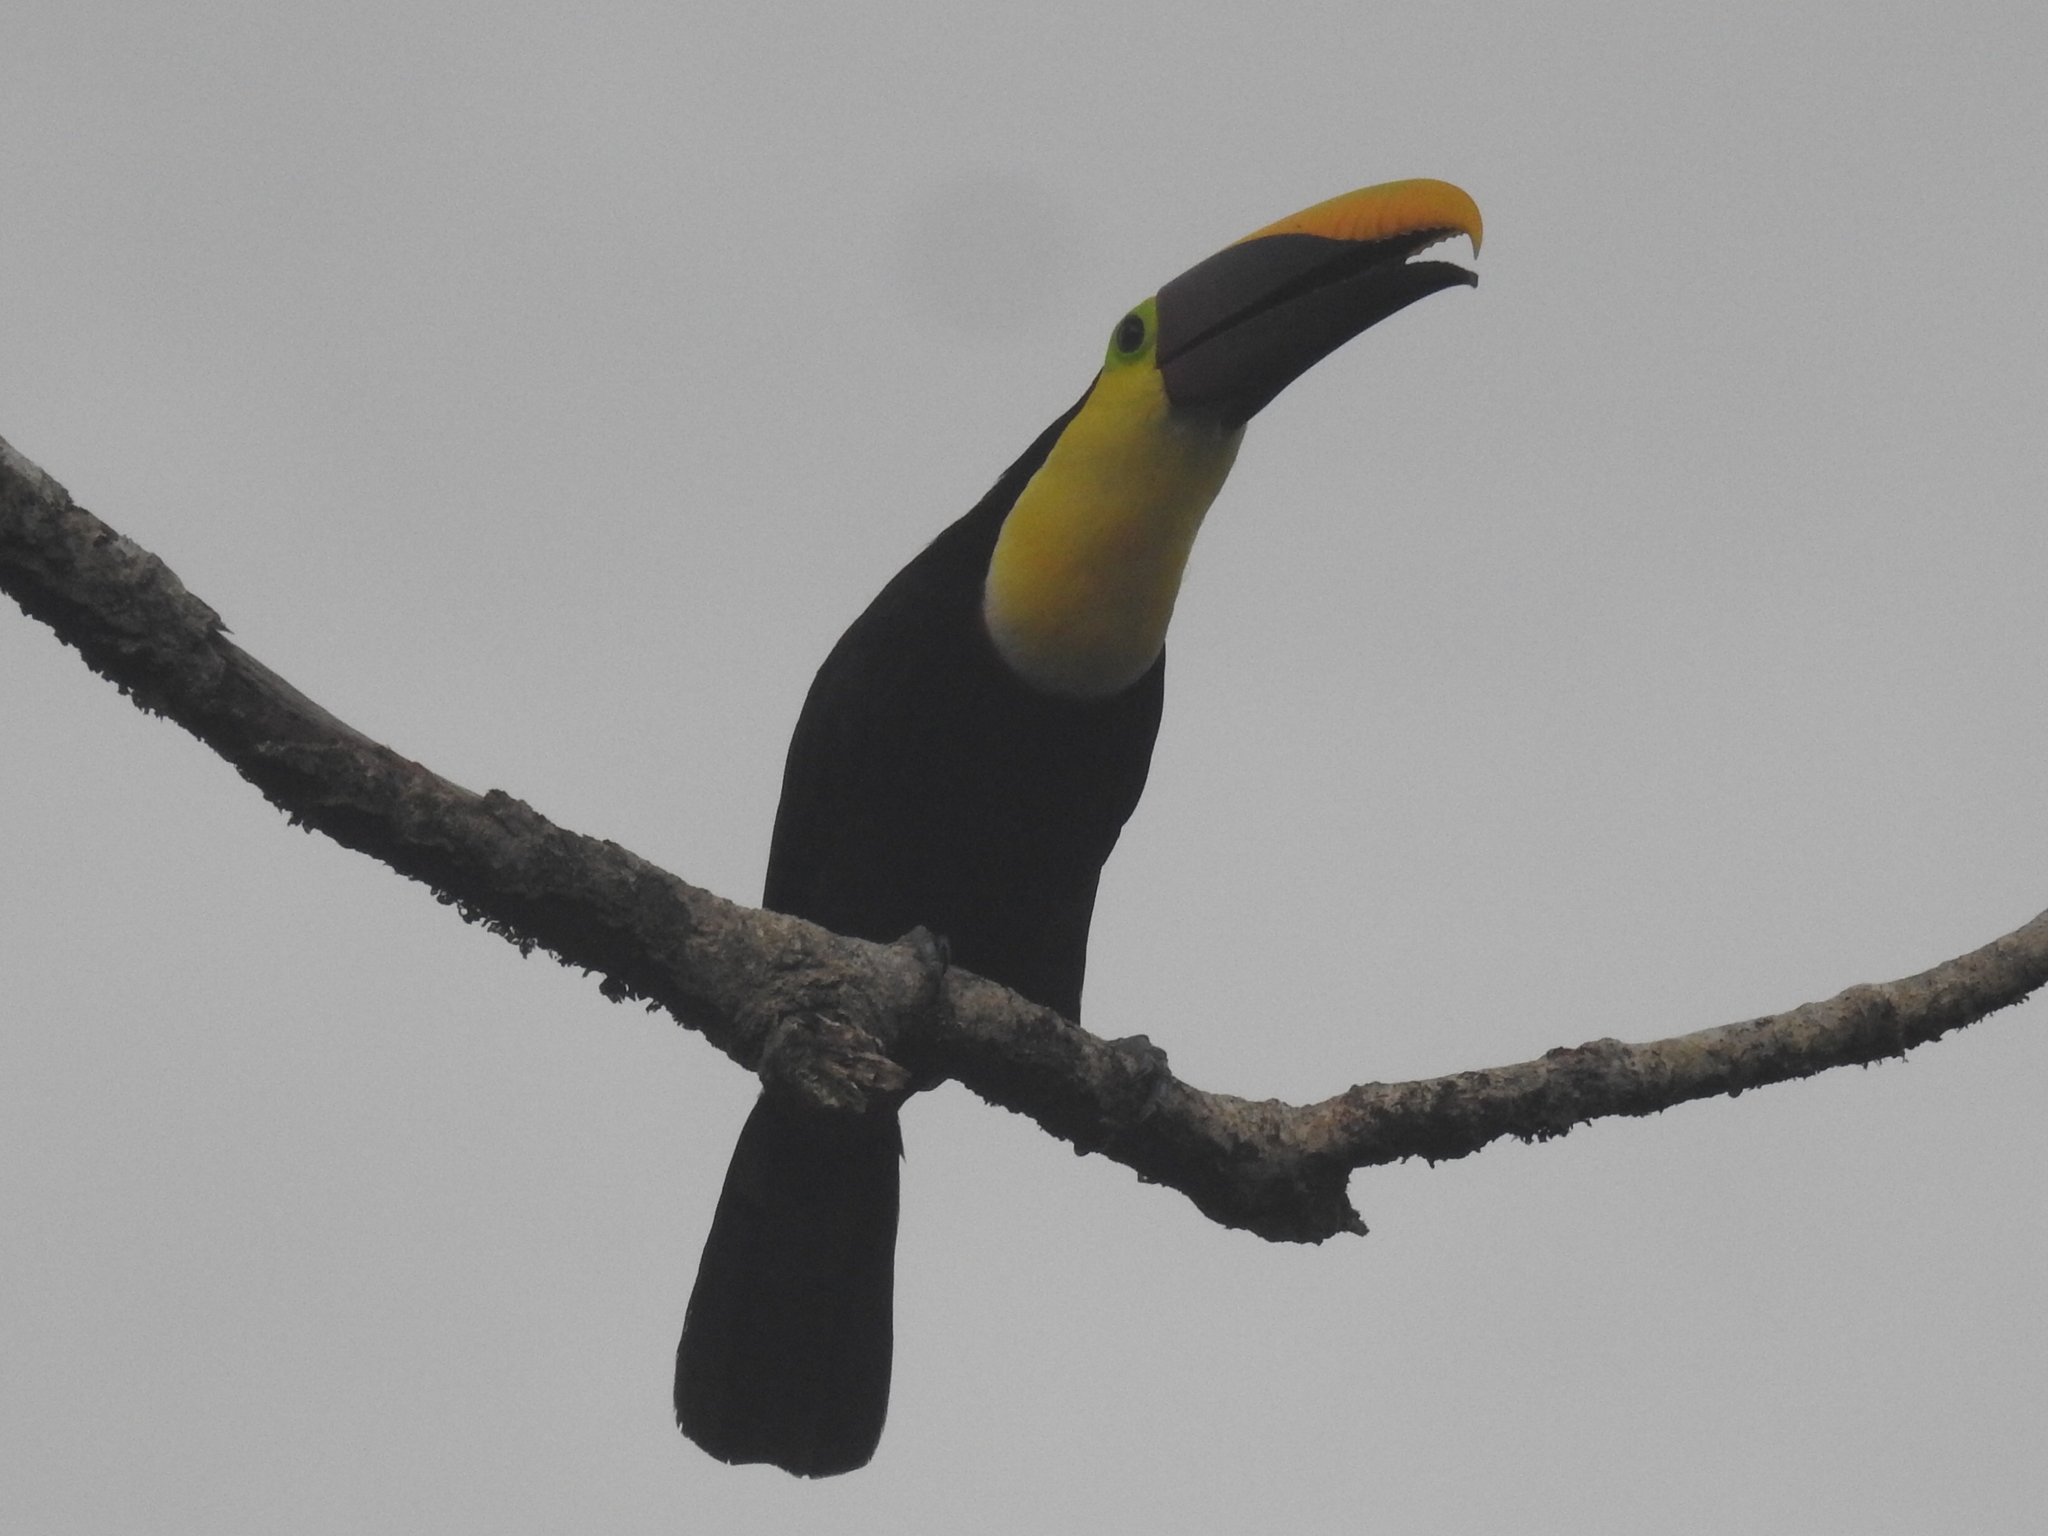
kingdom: Animalia
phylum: Chordata
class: Aves
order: Piciformes
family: Ramphastidae
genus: Ramphastos
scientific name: Ramphastos ambiguus
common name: Yellow-throated toucan
